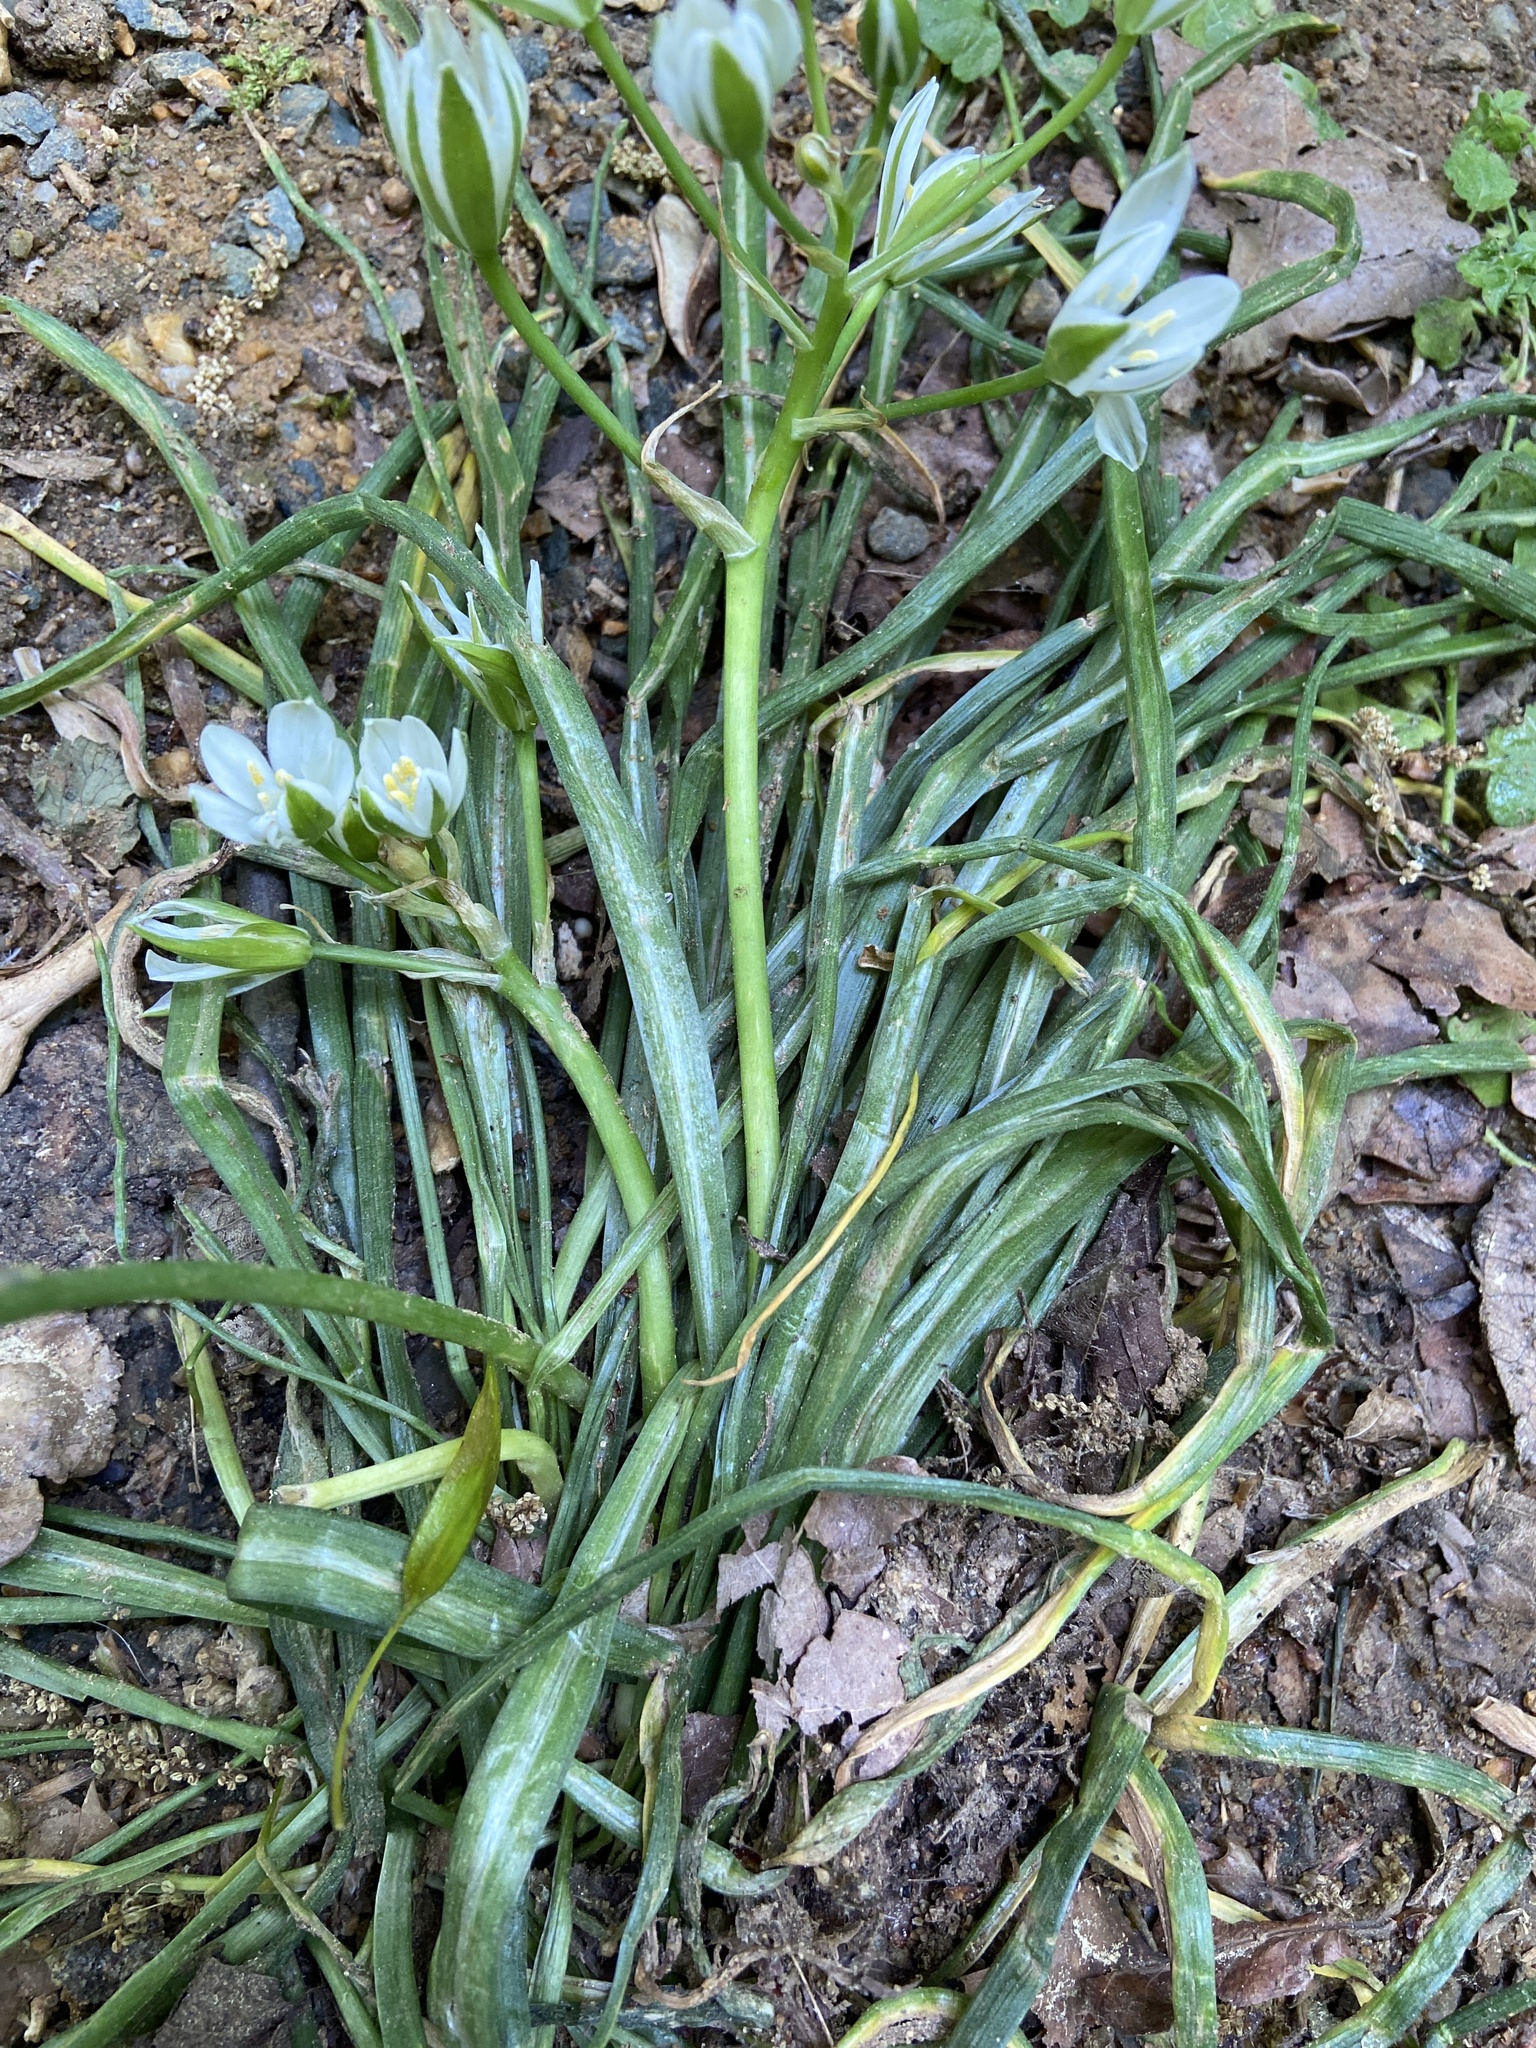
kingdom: Plantae
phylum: Tracheophyta
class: Liliopsida
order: Asparagales
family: Asparagaceae
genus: Ornithogalum
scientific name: Ornithogalum umbellatum
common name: Garden star-of-bethlehem
